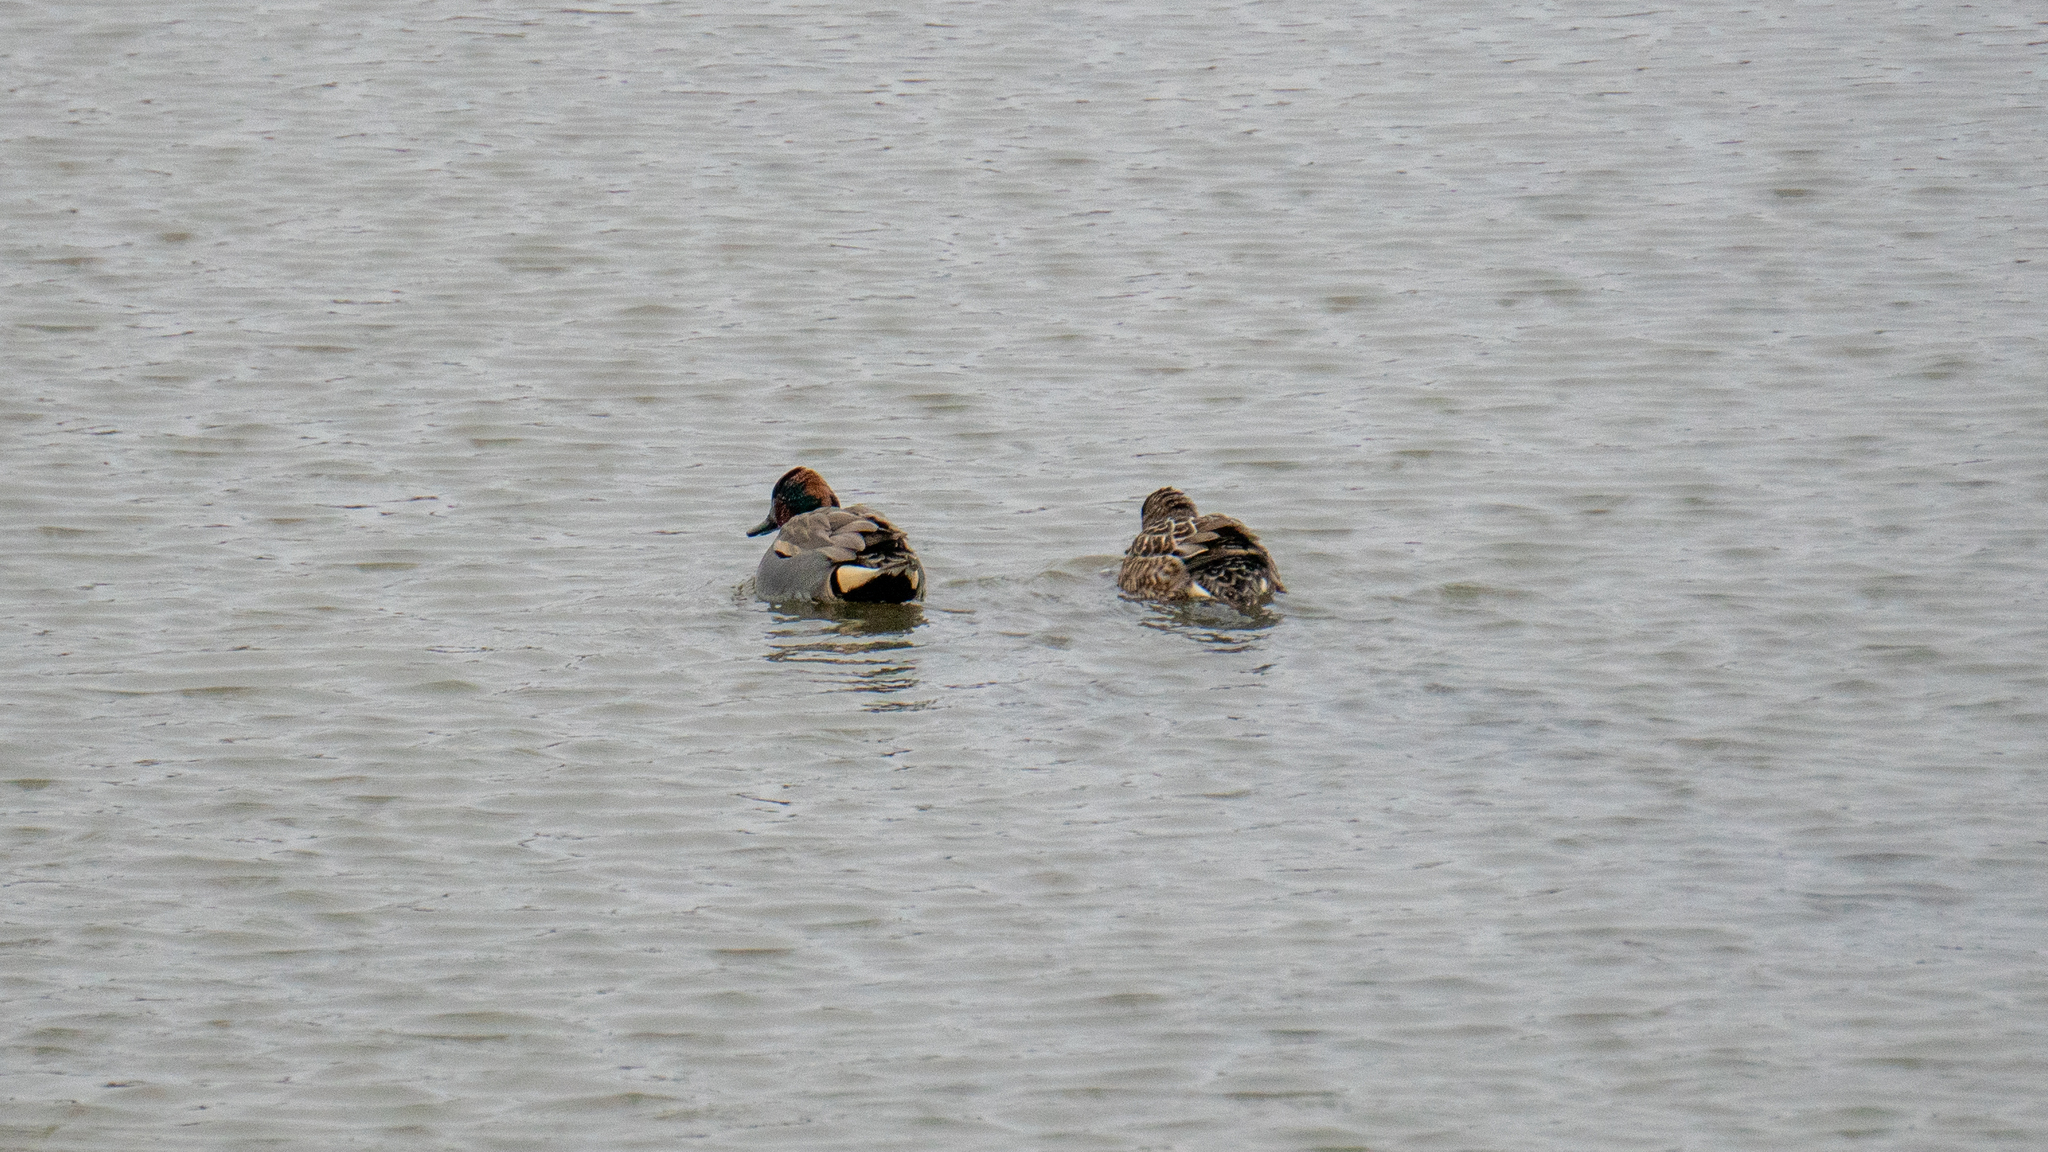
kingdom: Animalia
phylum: Chordata
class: Aves
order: Anseriformes
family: Anatidae
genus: Anas
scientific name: Anas crecca
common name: Eurasian teal
